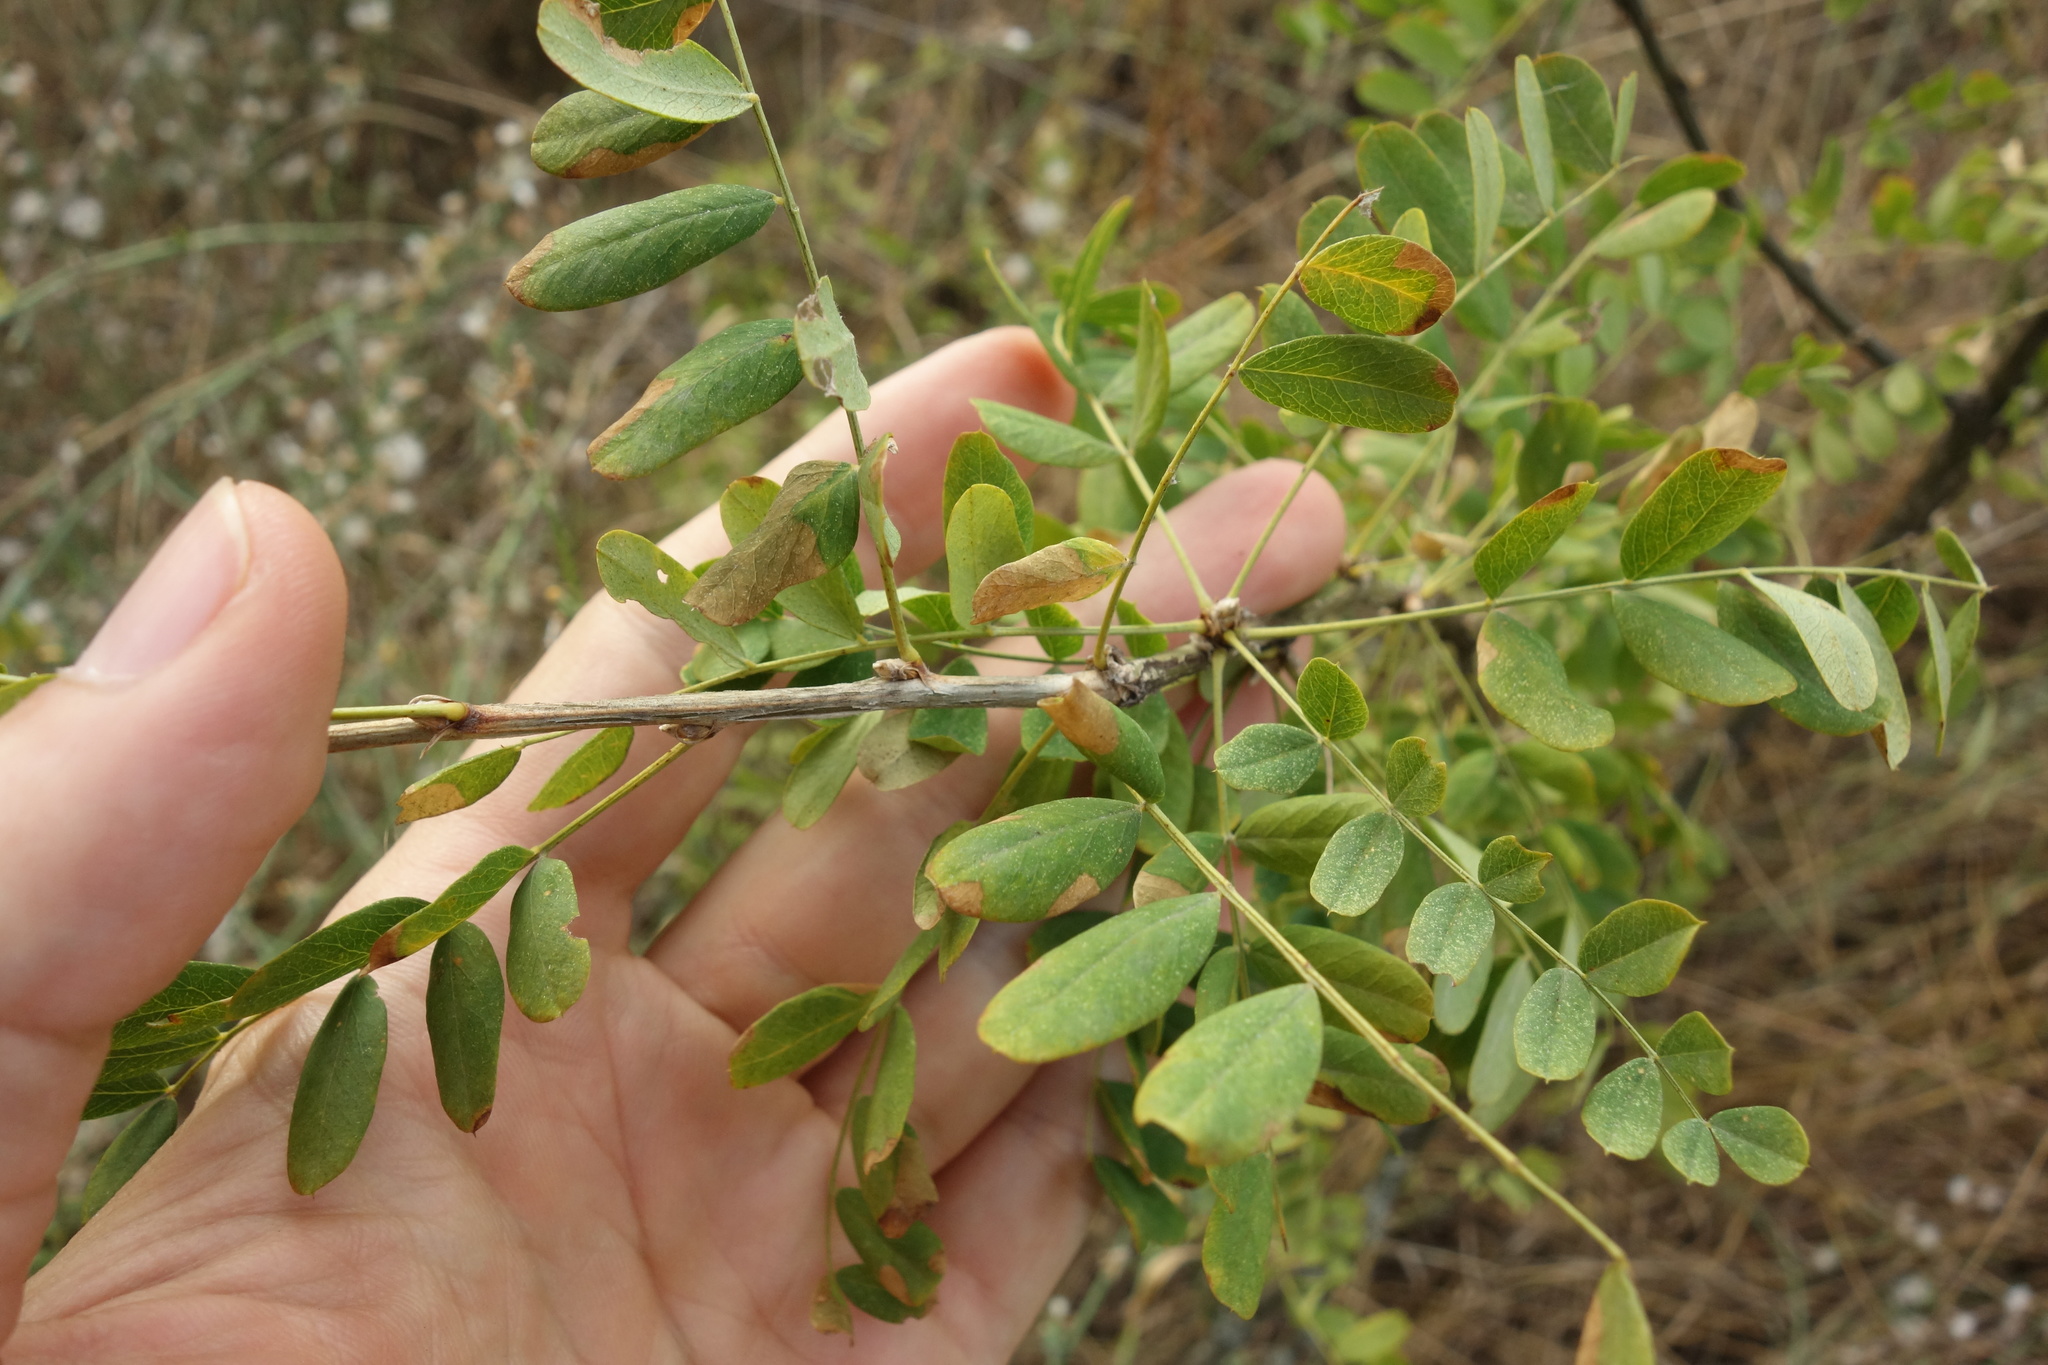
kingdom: Plantae
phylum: Tracheophyta
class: Magnoliopsida
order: Fabales
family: Fabaceae
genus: Caragana
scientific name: Caragana arborescens
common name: Siberian peashrub
